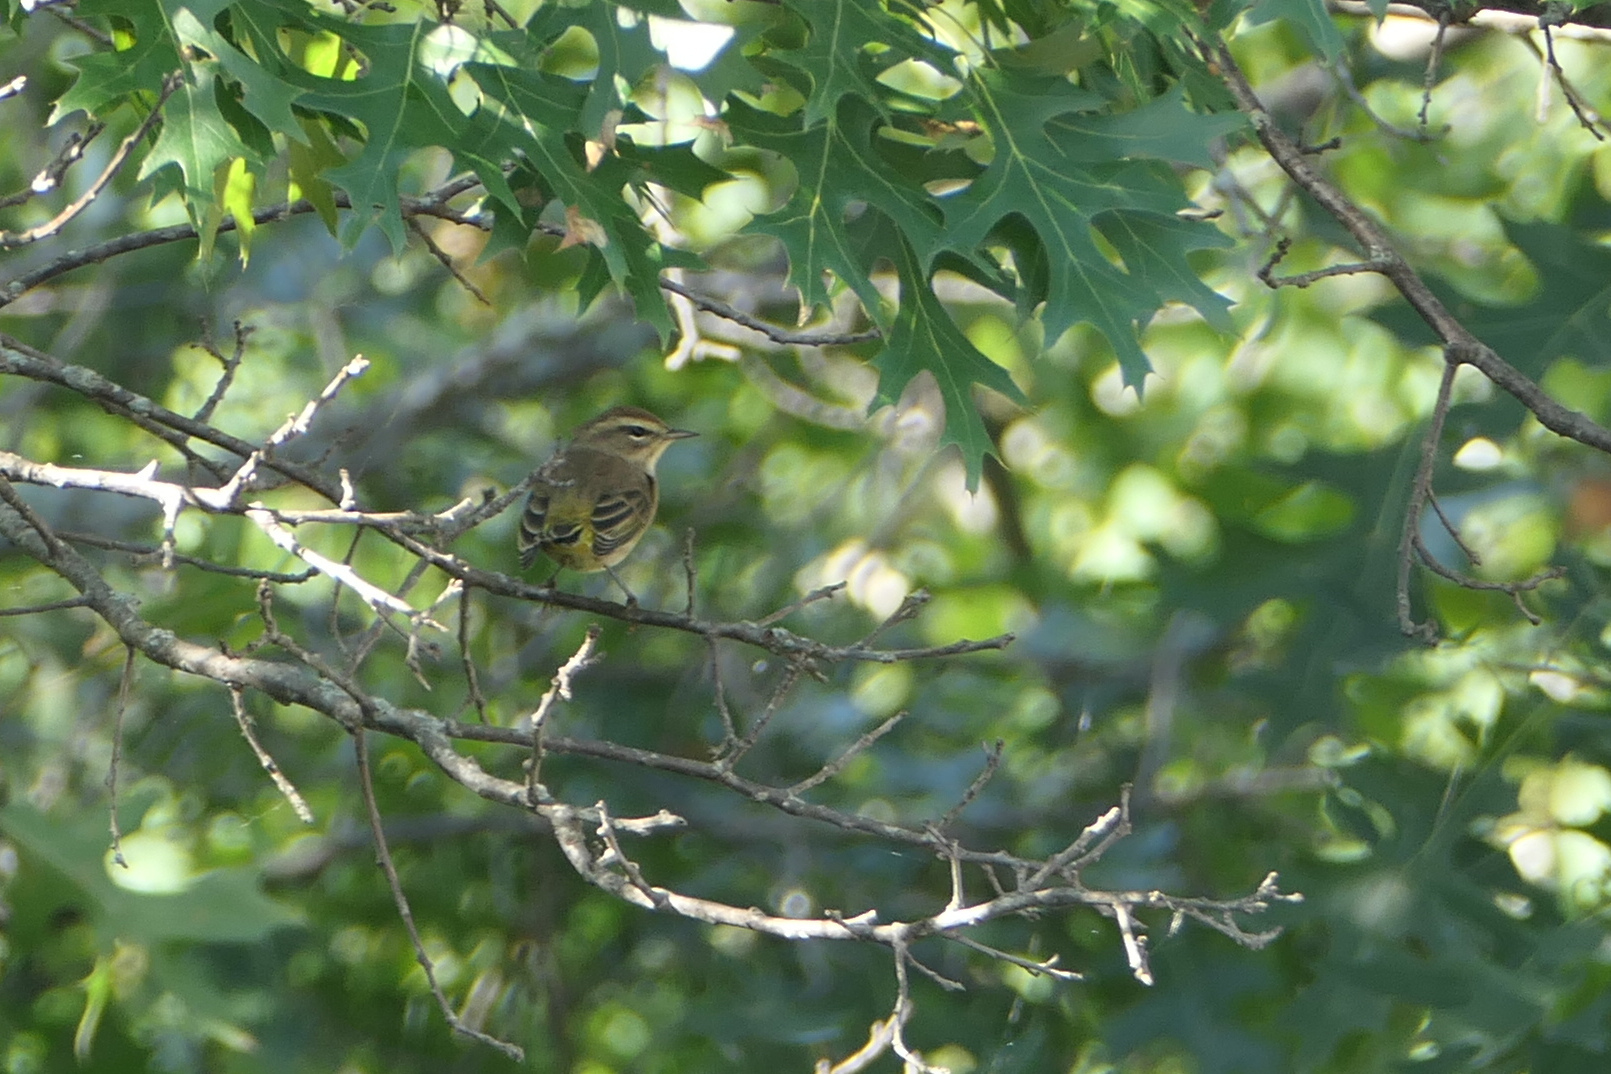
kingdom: Animalia
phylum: Chordata
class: Aves
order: Passeriformes
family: Parulidae
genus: Setophaga
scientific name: Setophaga palmarum
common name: Palm warbler
